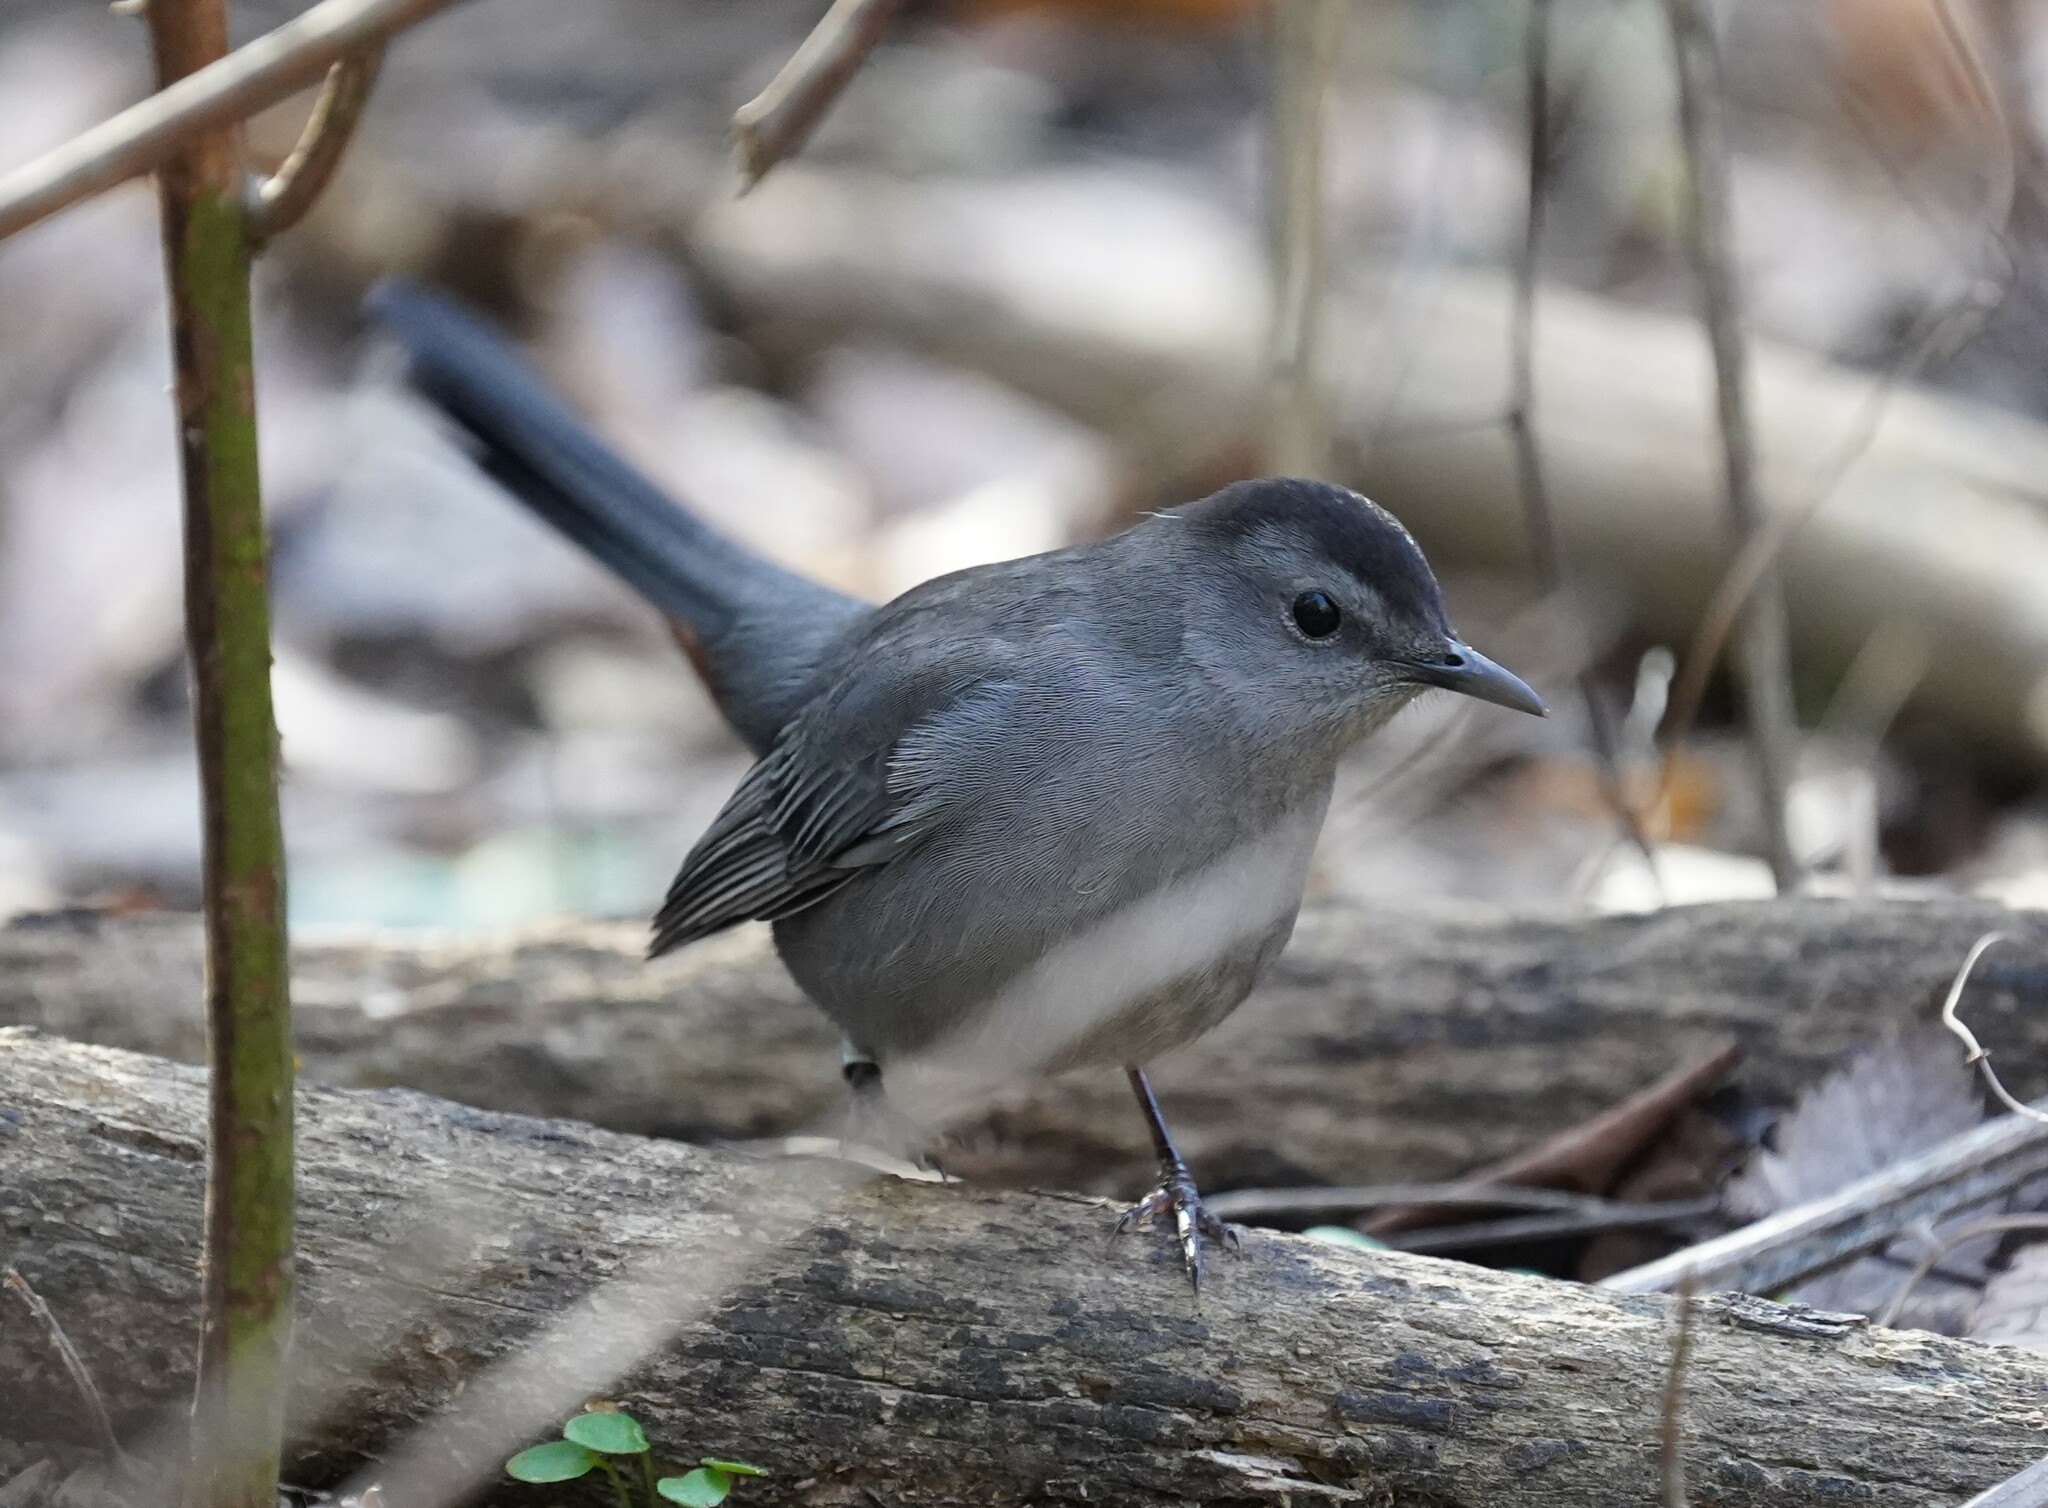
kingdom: Animalia
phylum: Chordata
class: Aves
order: Passeriformes
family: Mimidae
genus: Dumetella
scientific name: Dumetella carolinensis
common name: Gray catbird
